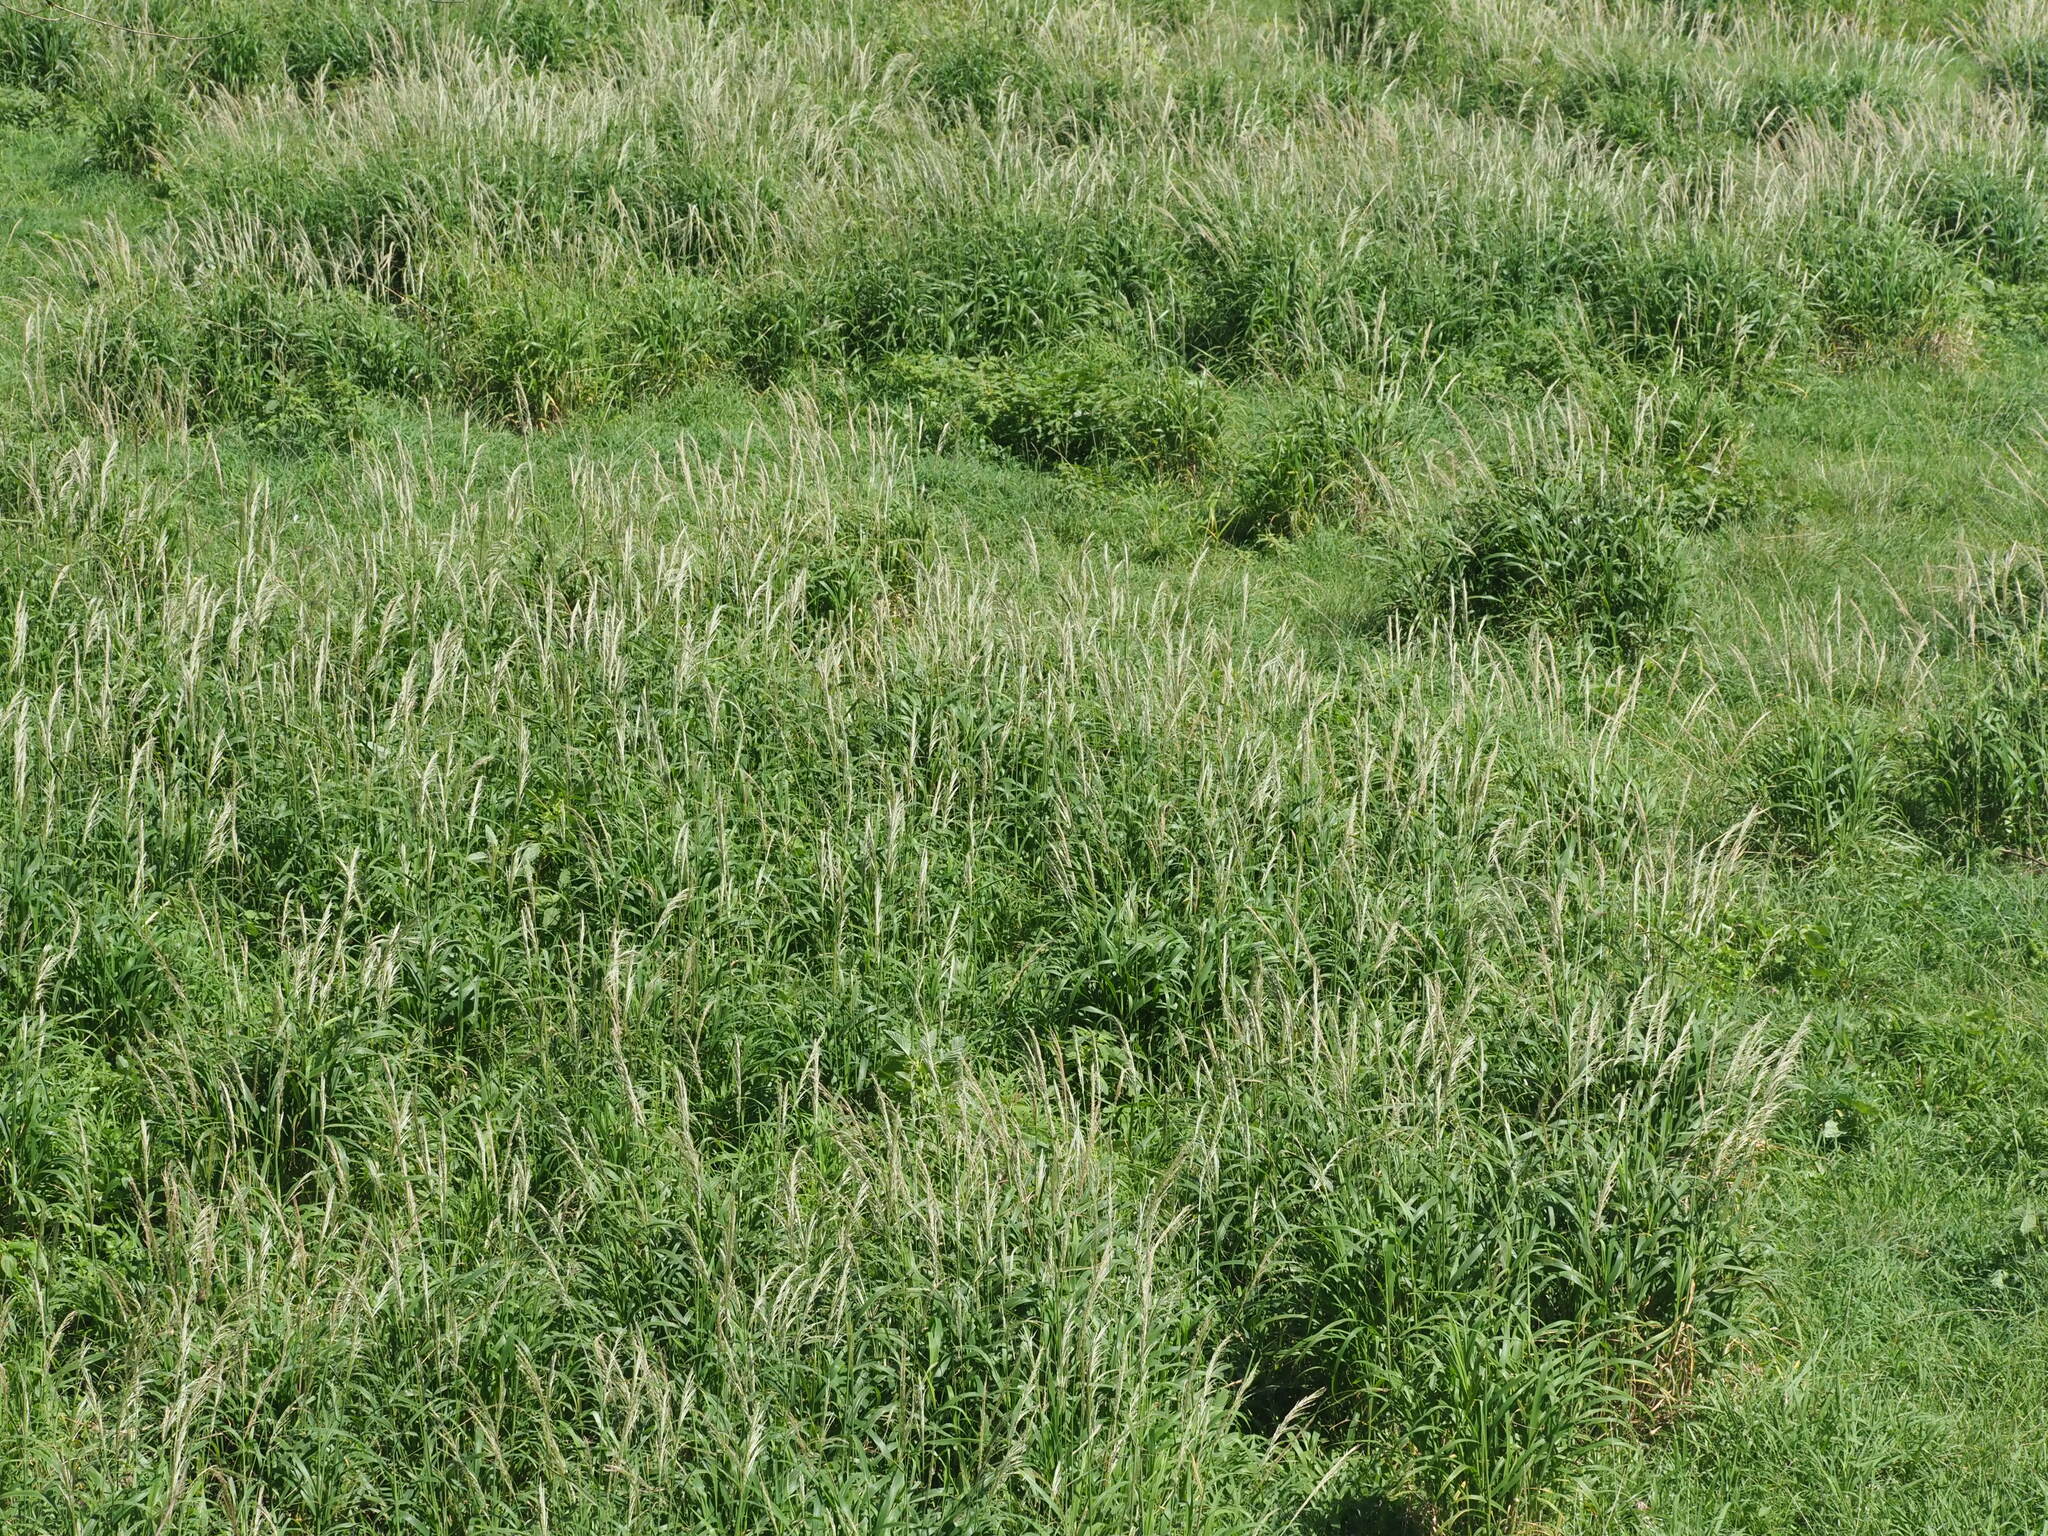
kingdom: Plantae
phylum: Tracheophyta
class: Liliopsida
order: Poales
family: Poaceae
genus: Digitaria
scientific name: Digitaria insularis
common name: Sourgrass
